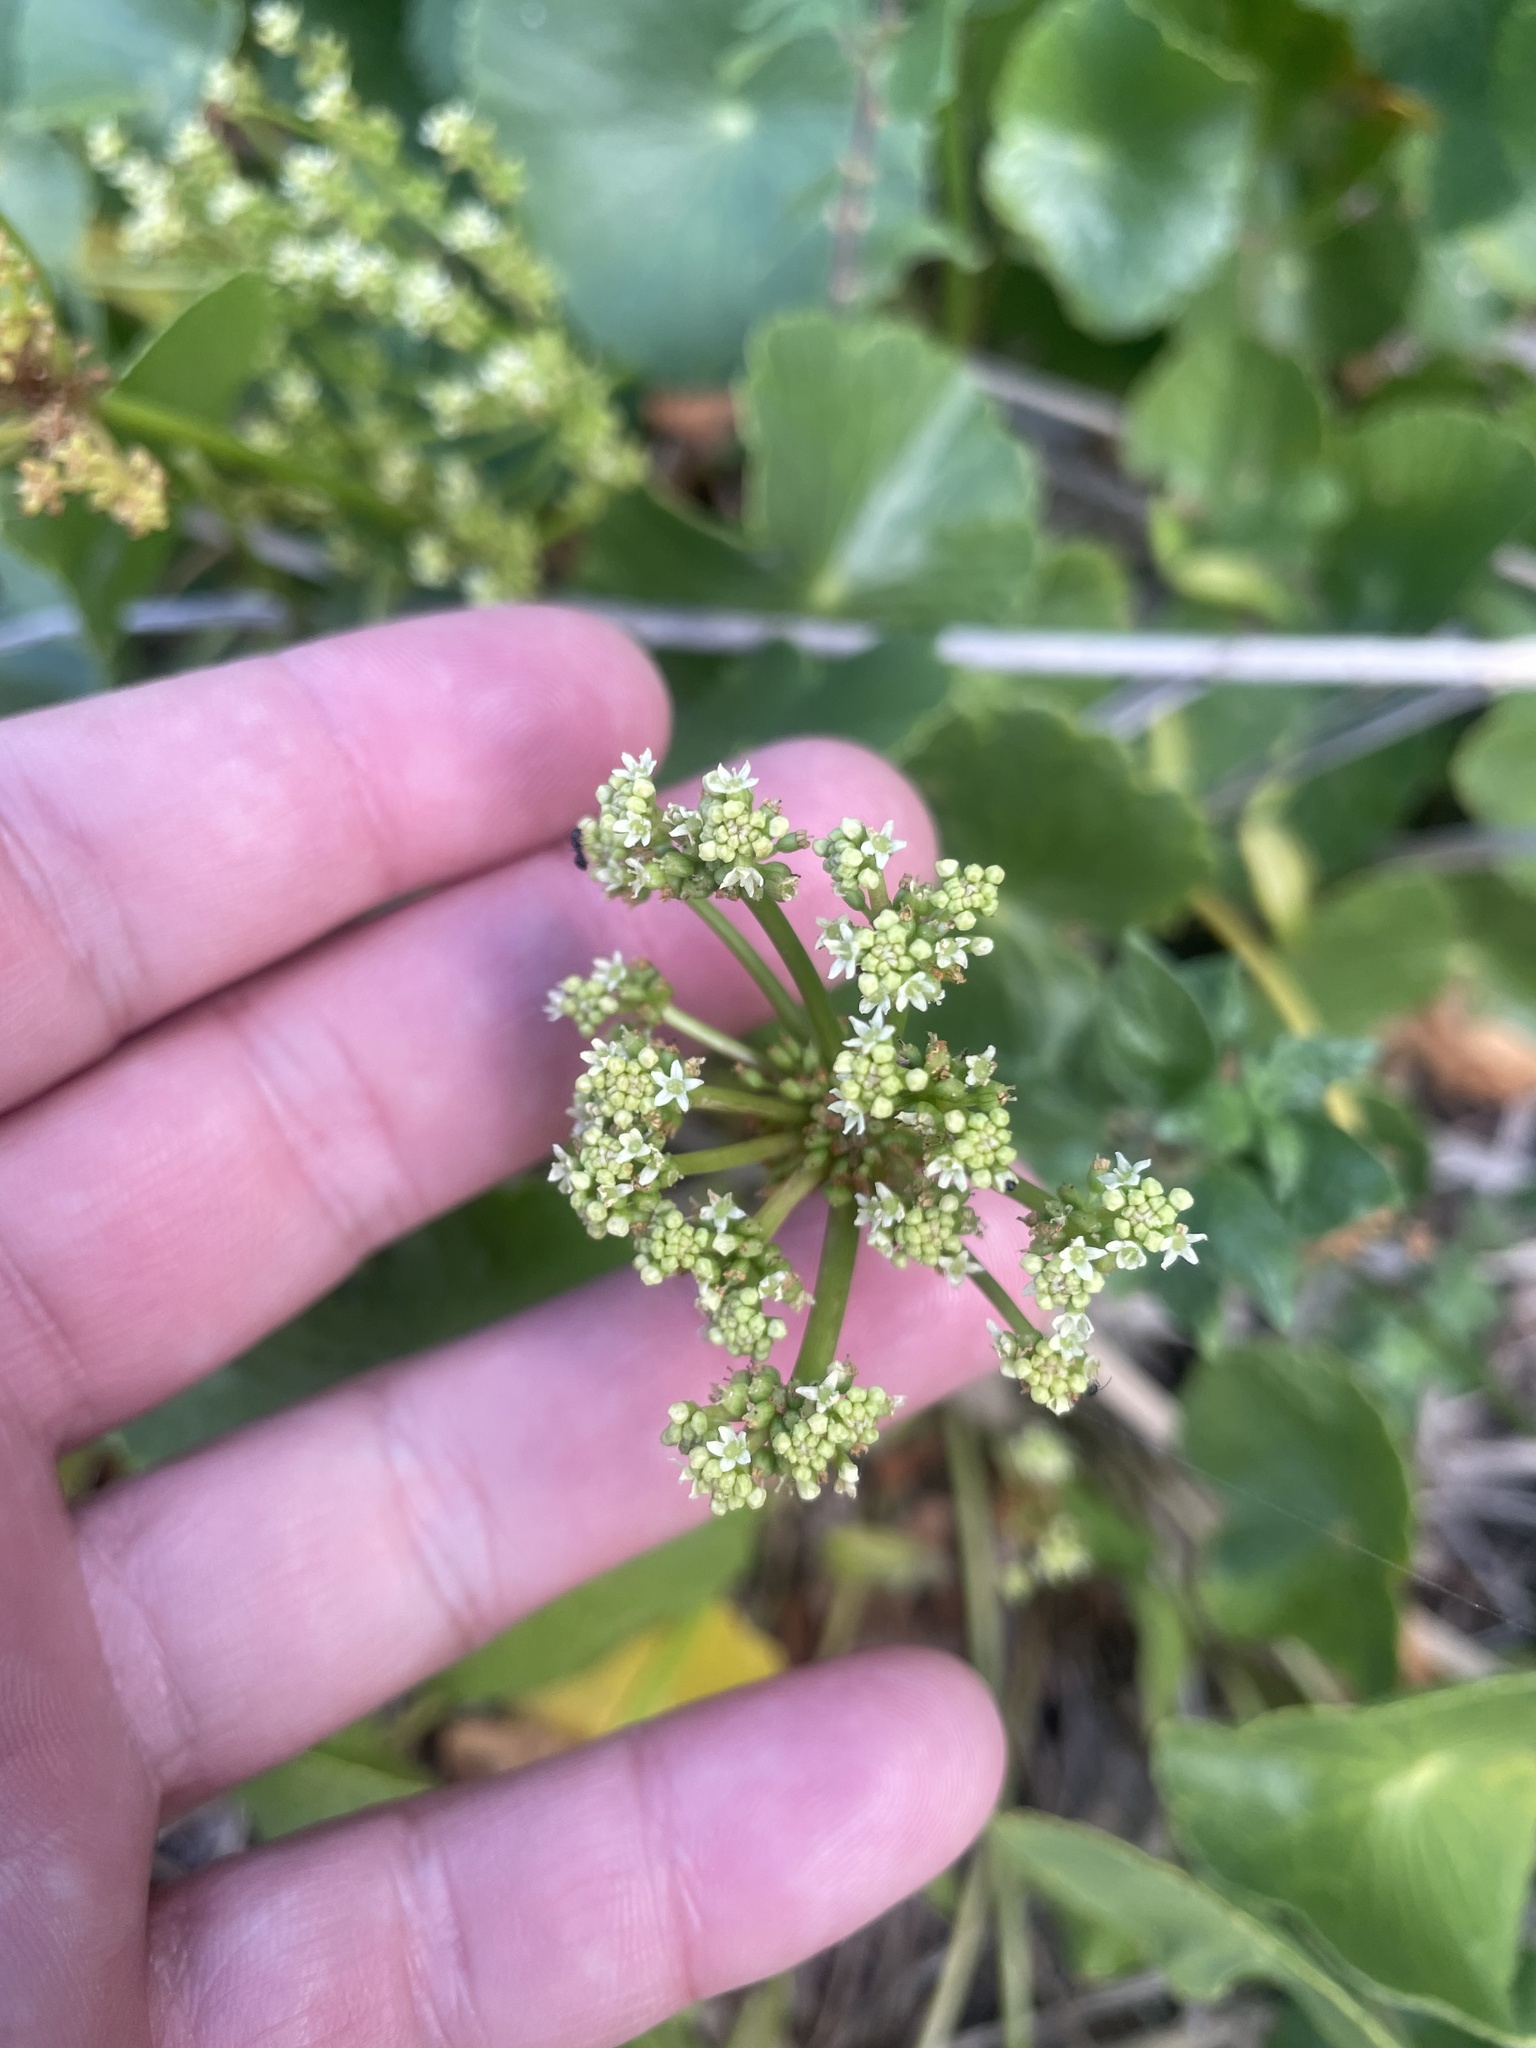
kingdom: Plantae
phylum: Tracheophyta
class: Magnoliopsida
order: Apiales
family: Araliaceae
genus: Hydrocotyle
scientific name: Hydrocotyle bonariensis
